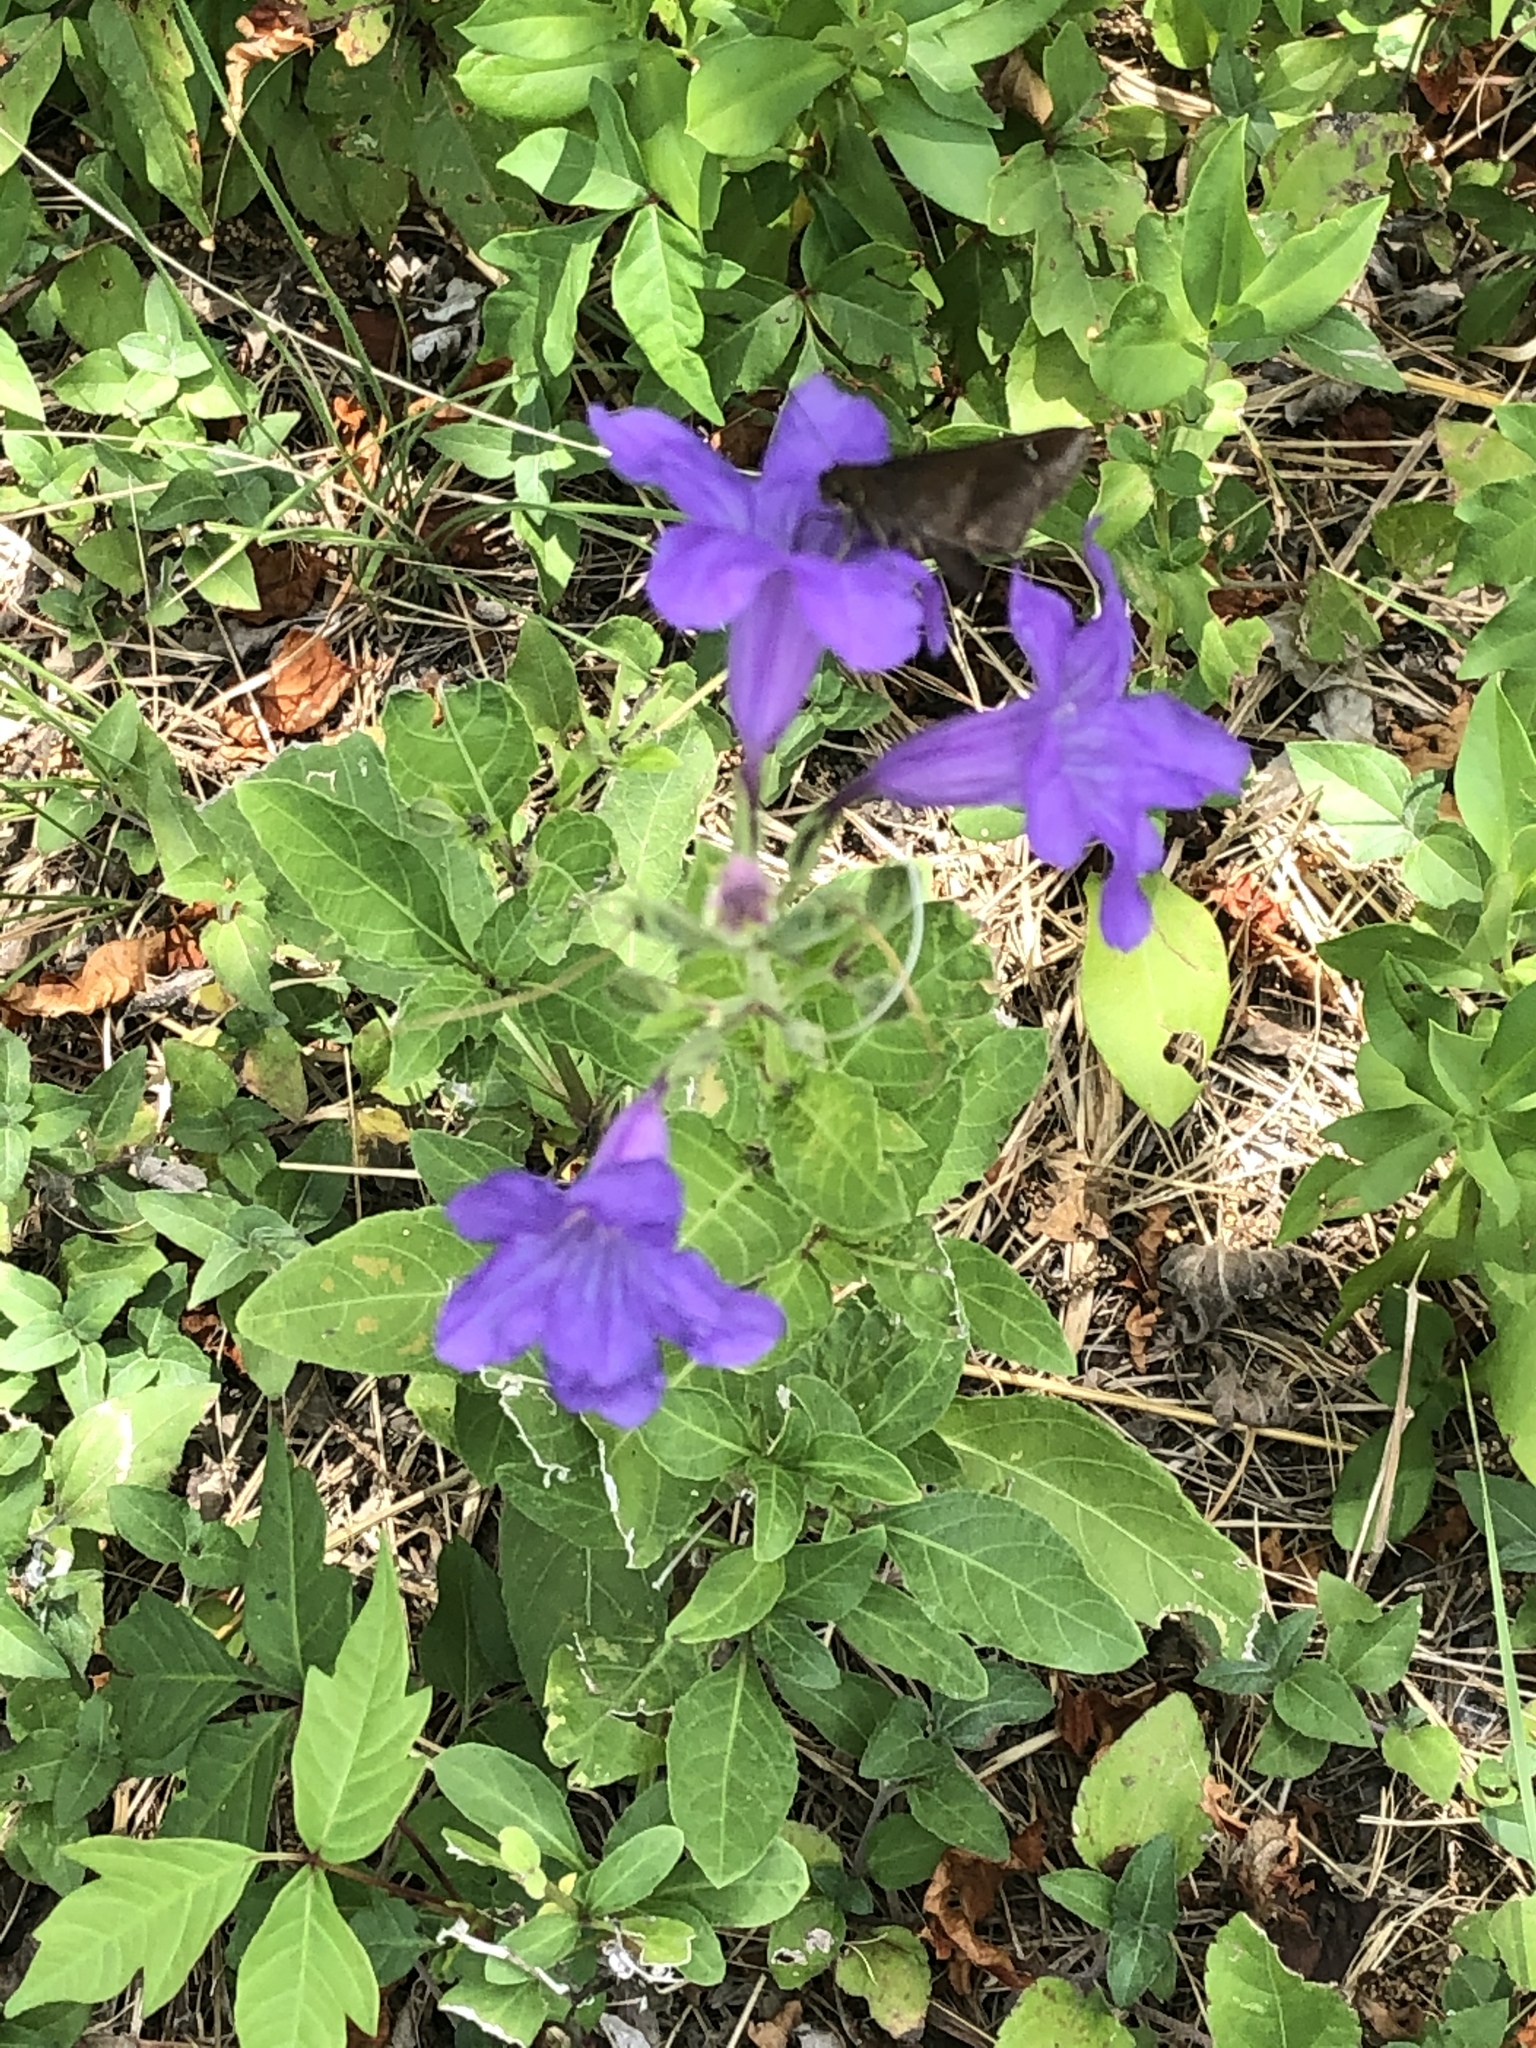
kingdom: Animalia
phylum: Arthropoda
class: Insecta
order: Lepidoptera
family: Hesperiidae
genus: Lerema
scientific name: Lerema accius
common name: Clouded skipper
